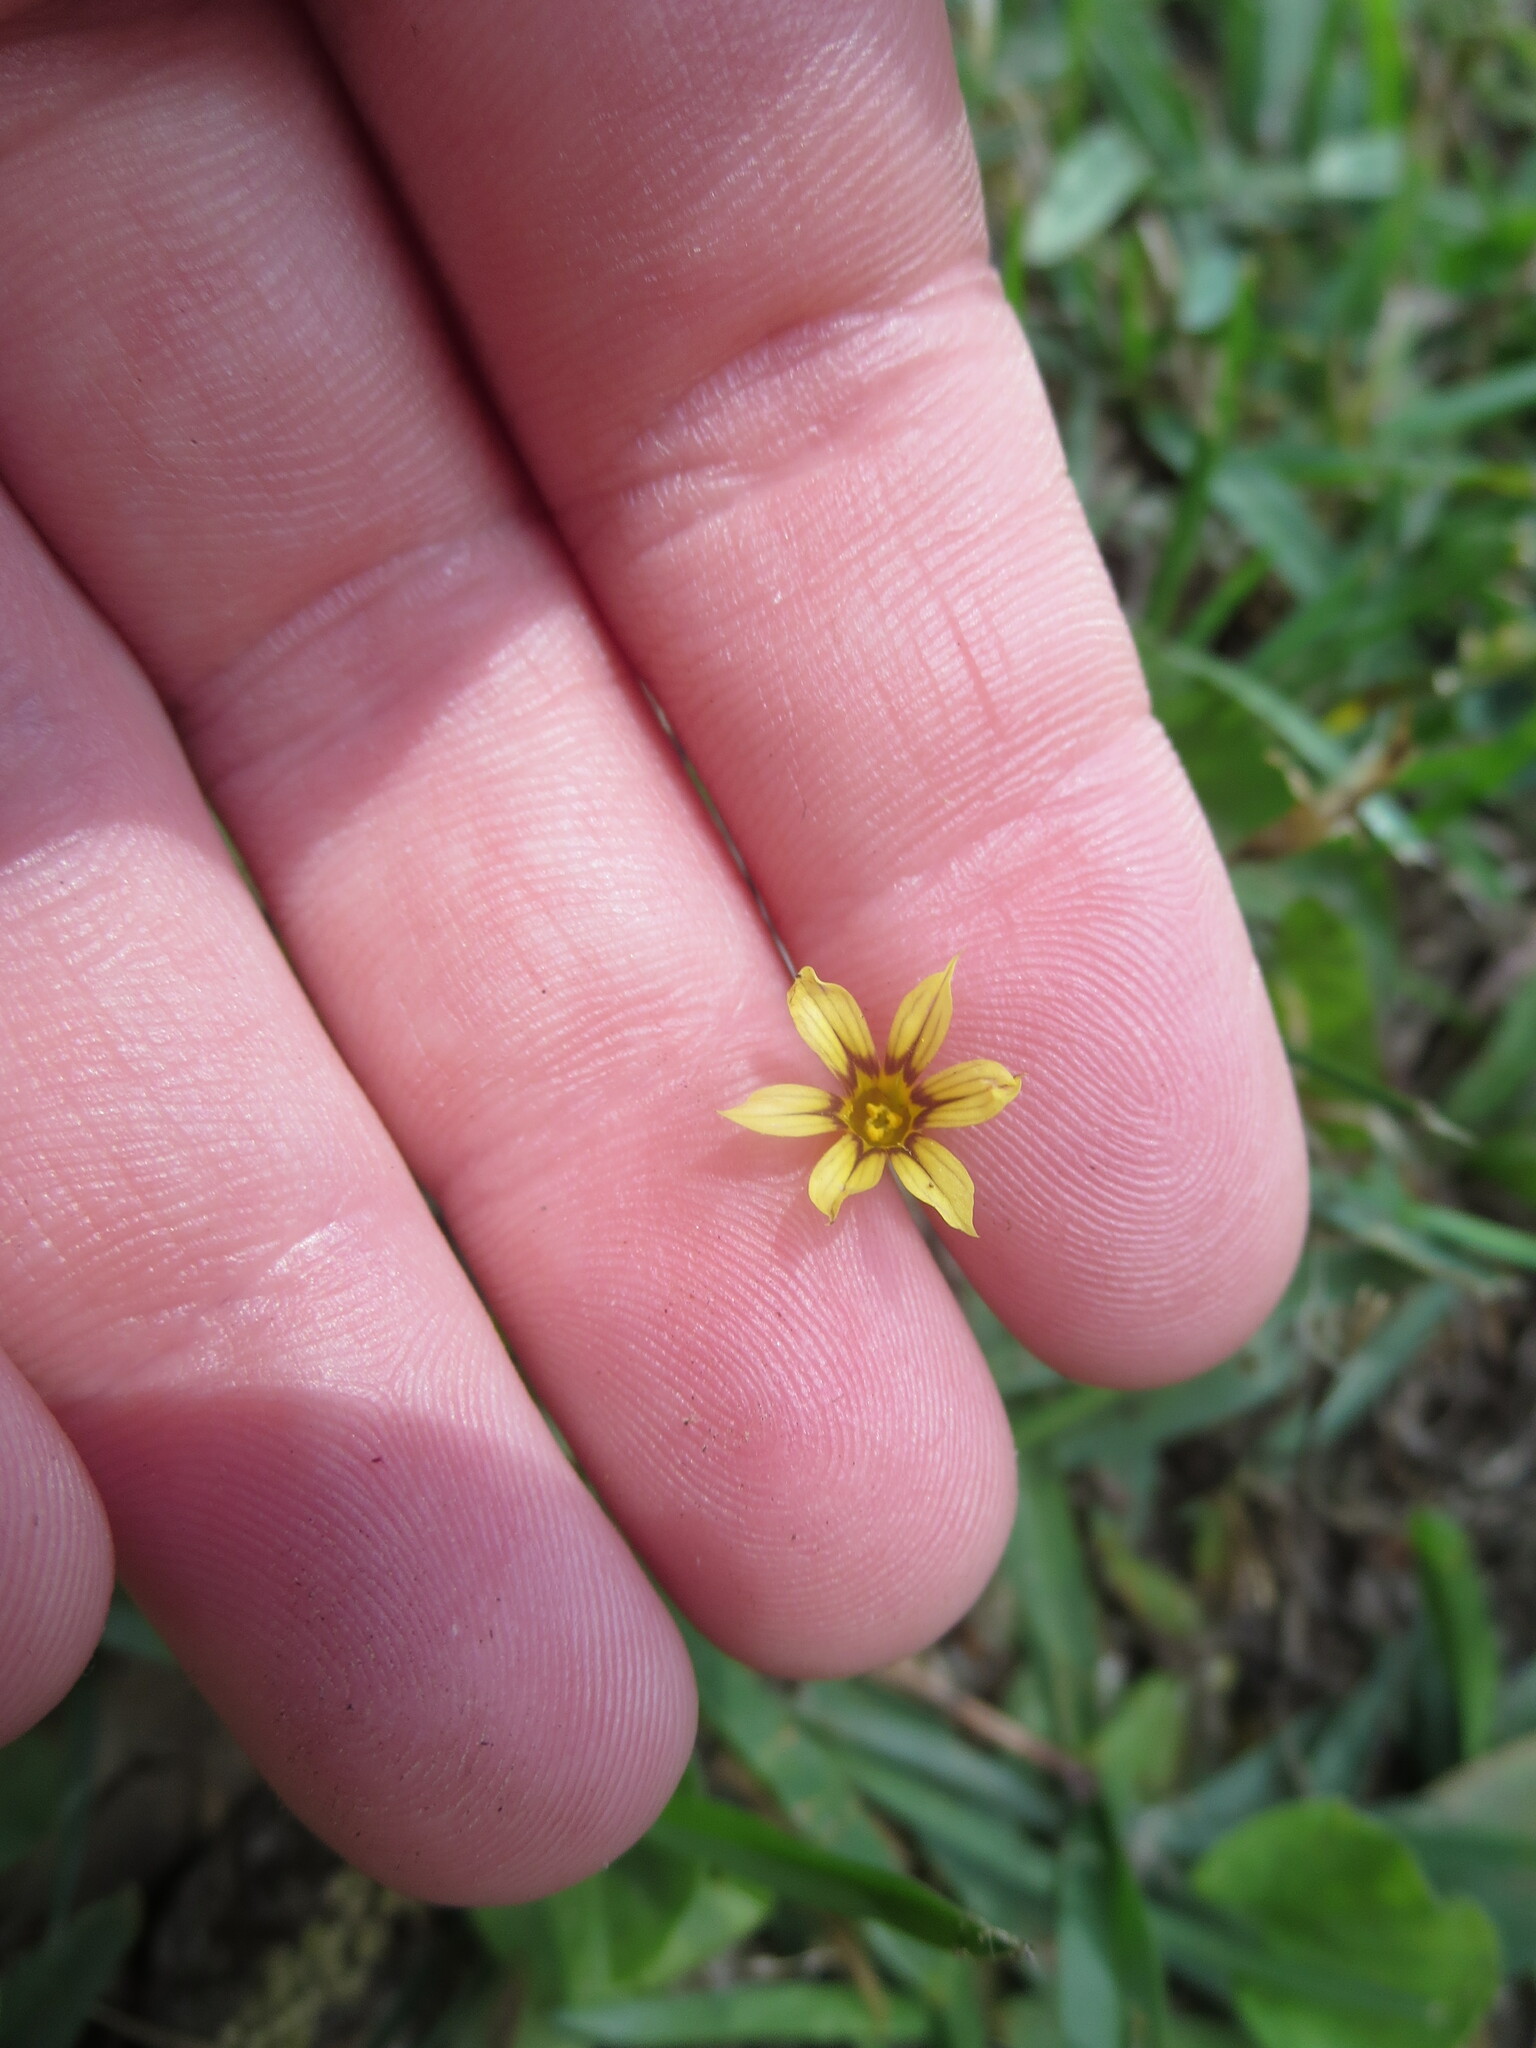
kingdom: Plantae
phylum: Tracheophyta
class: Liliopsida
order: Asparagales
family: Iridaceae
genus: Sisyrinchium
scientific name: Sisyrinchium micranthum
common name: Bermuda pigroot
